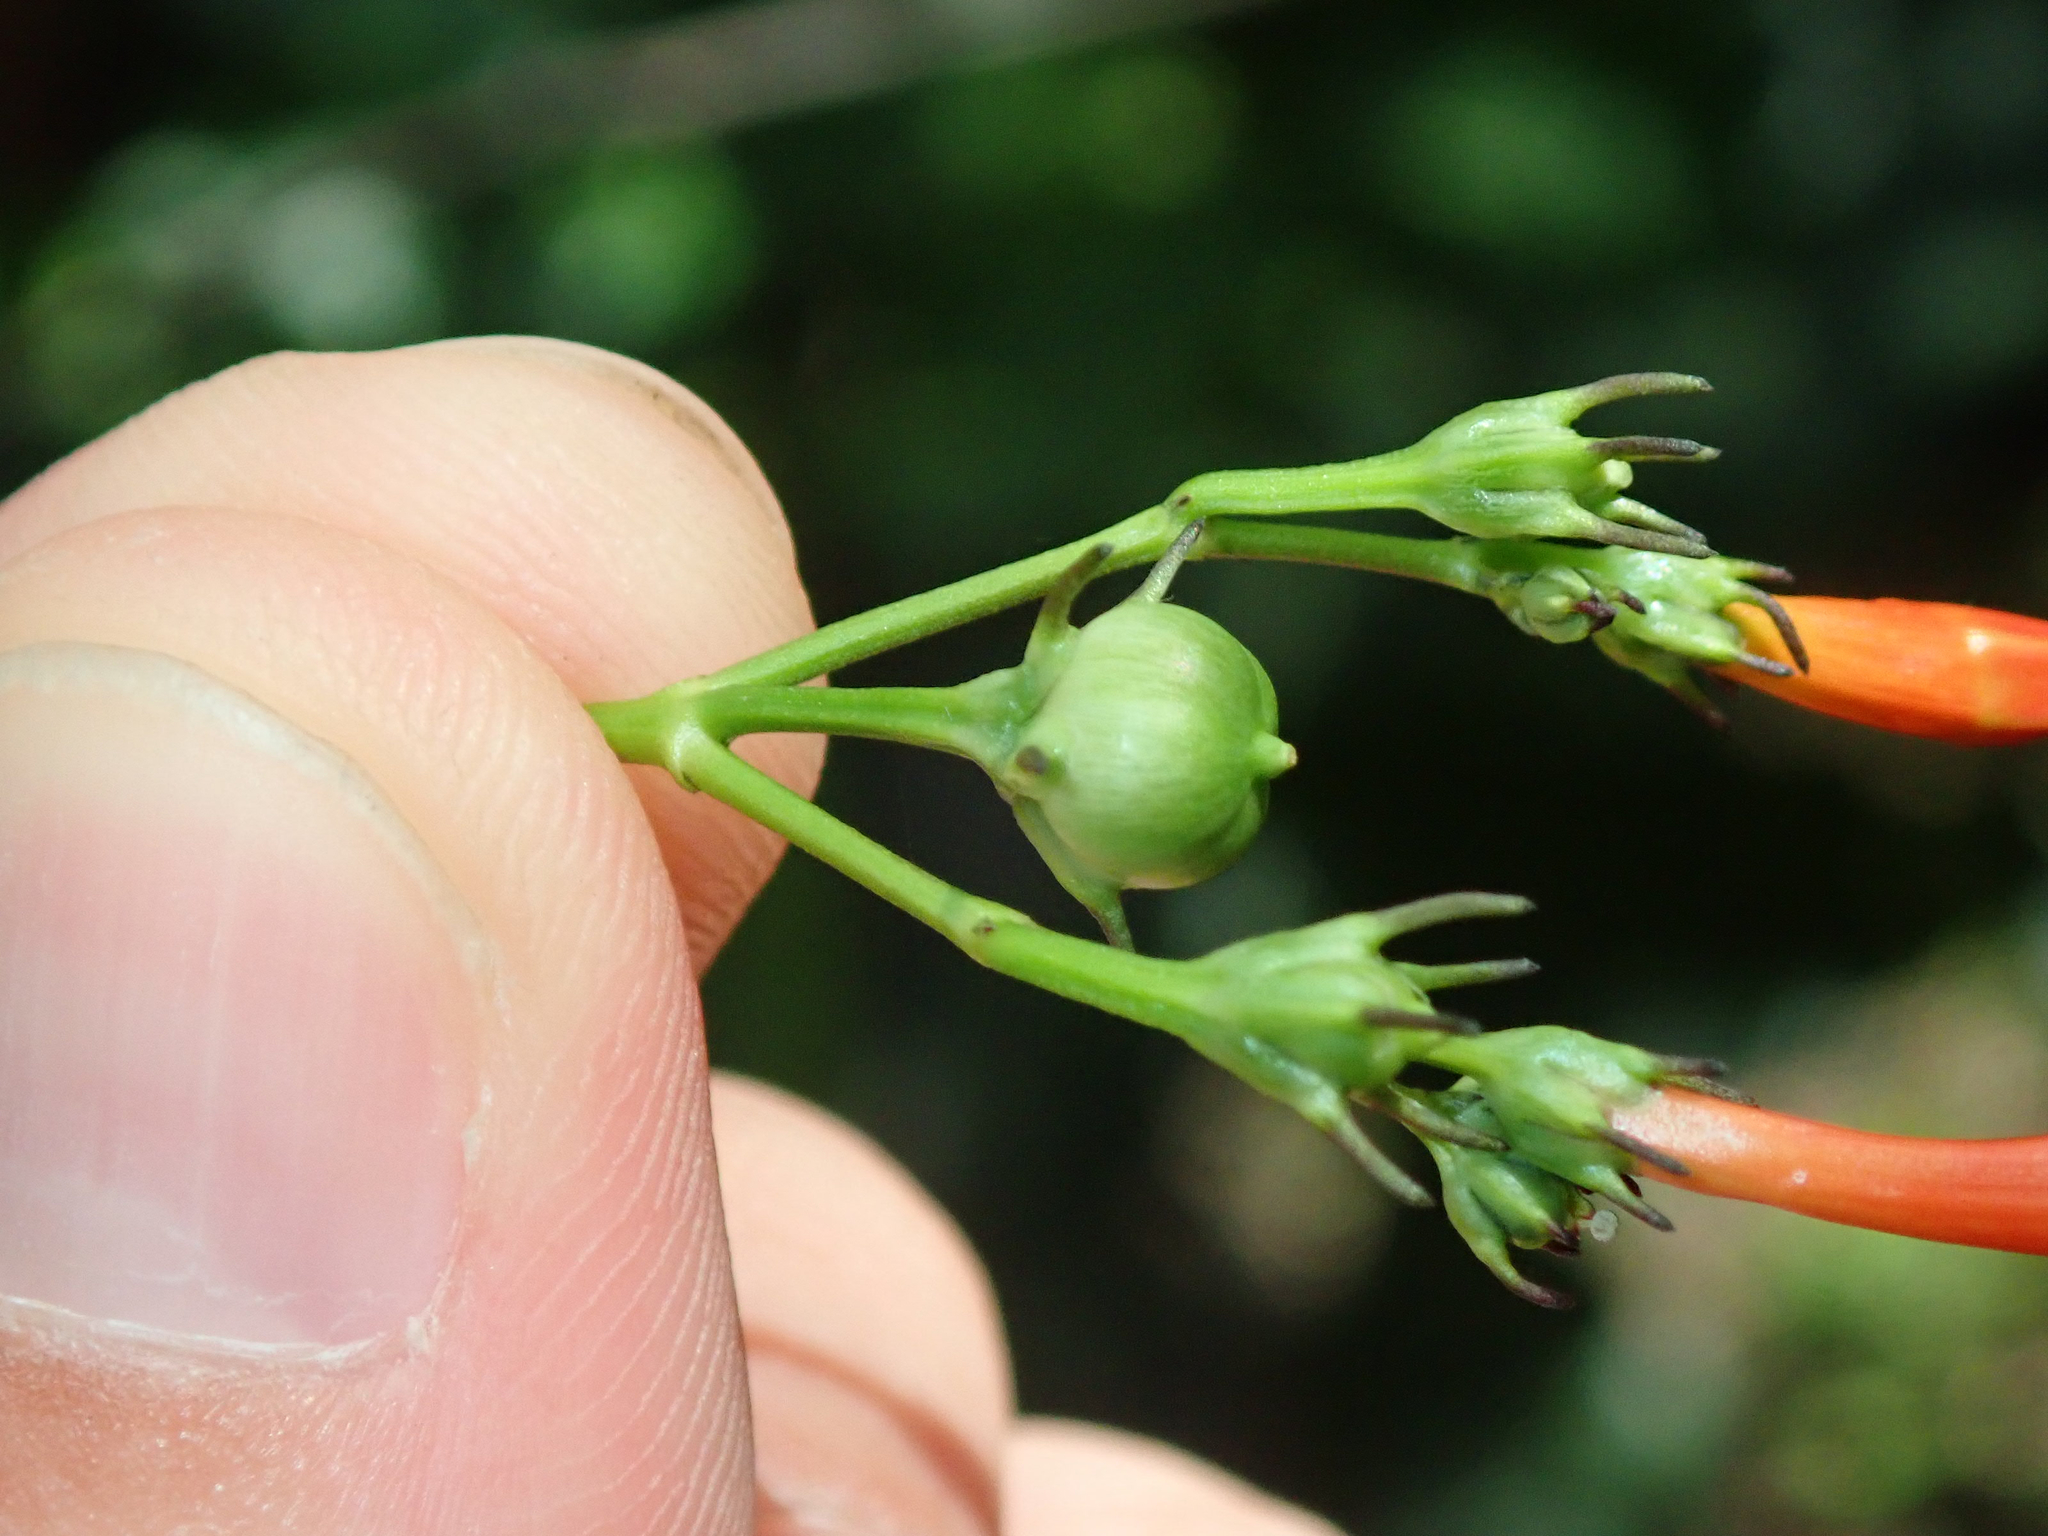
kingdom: Plantae
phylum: Tracheophyta
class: Magnoliopsida
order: Solanales
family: Convolvulaceae
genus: Ipomoea
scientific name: Ipomoea hederifolia
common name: Ivy-leaf morning-glory
